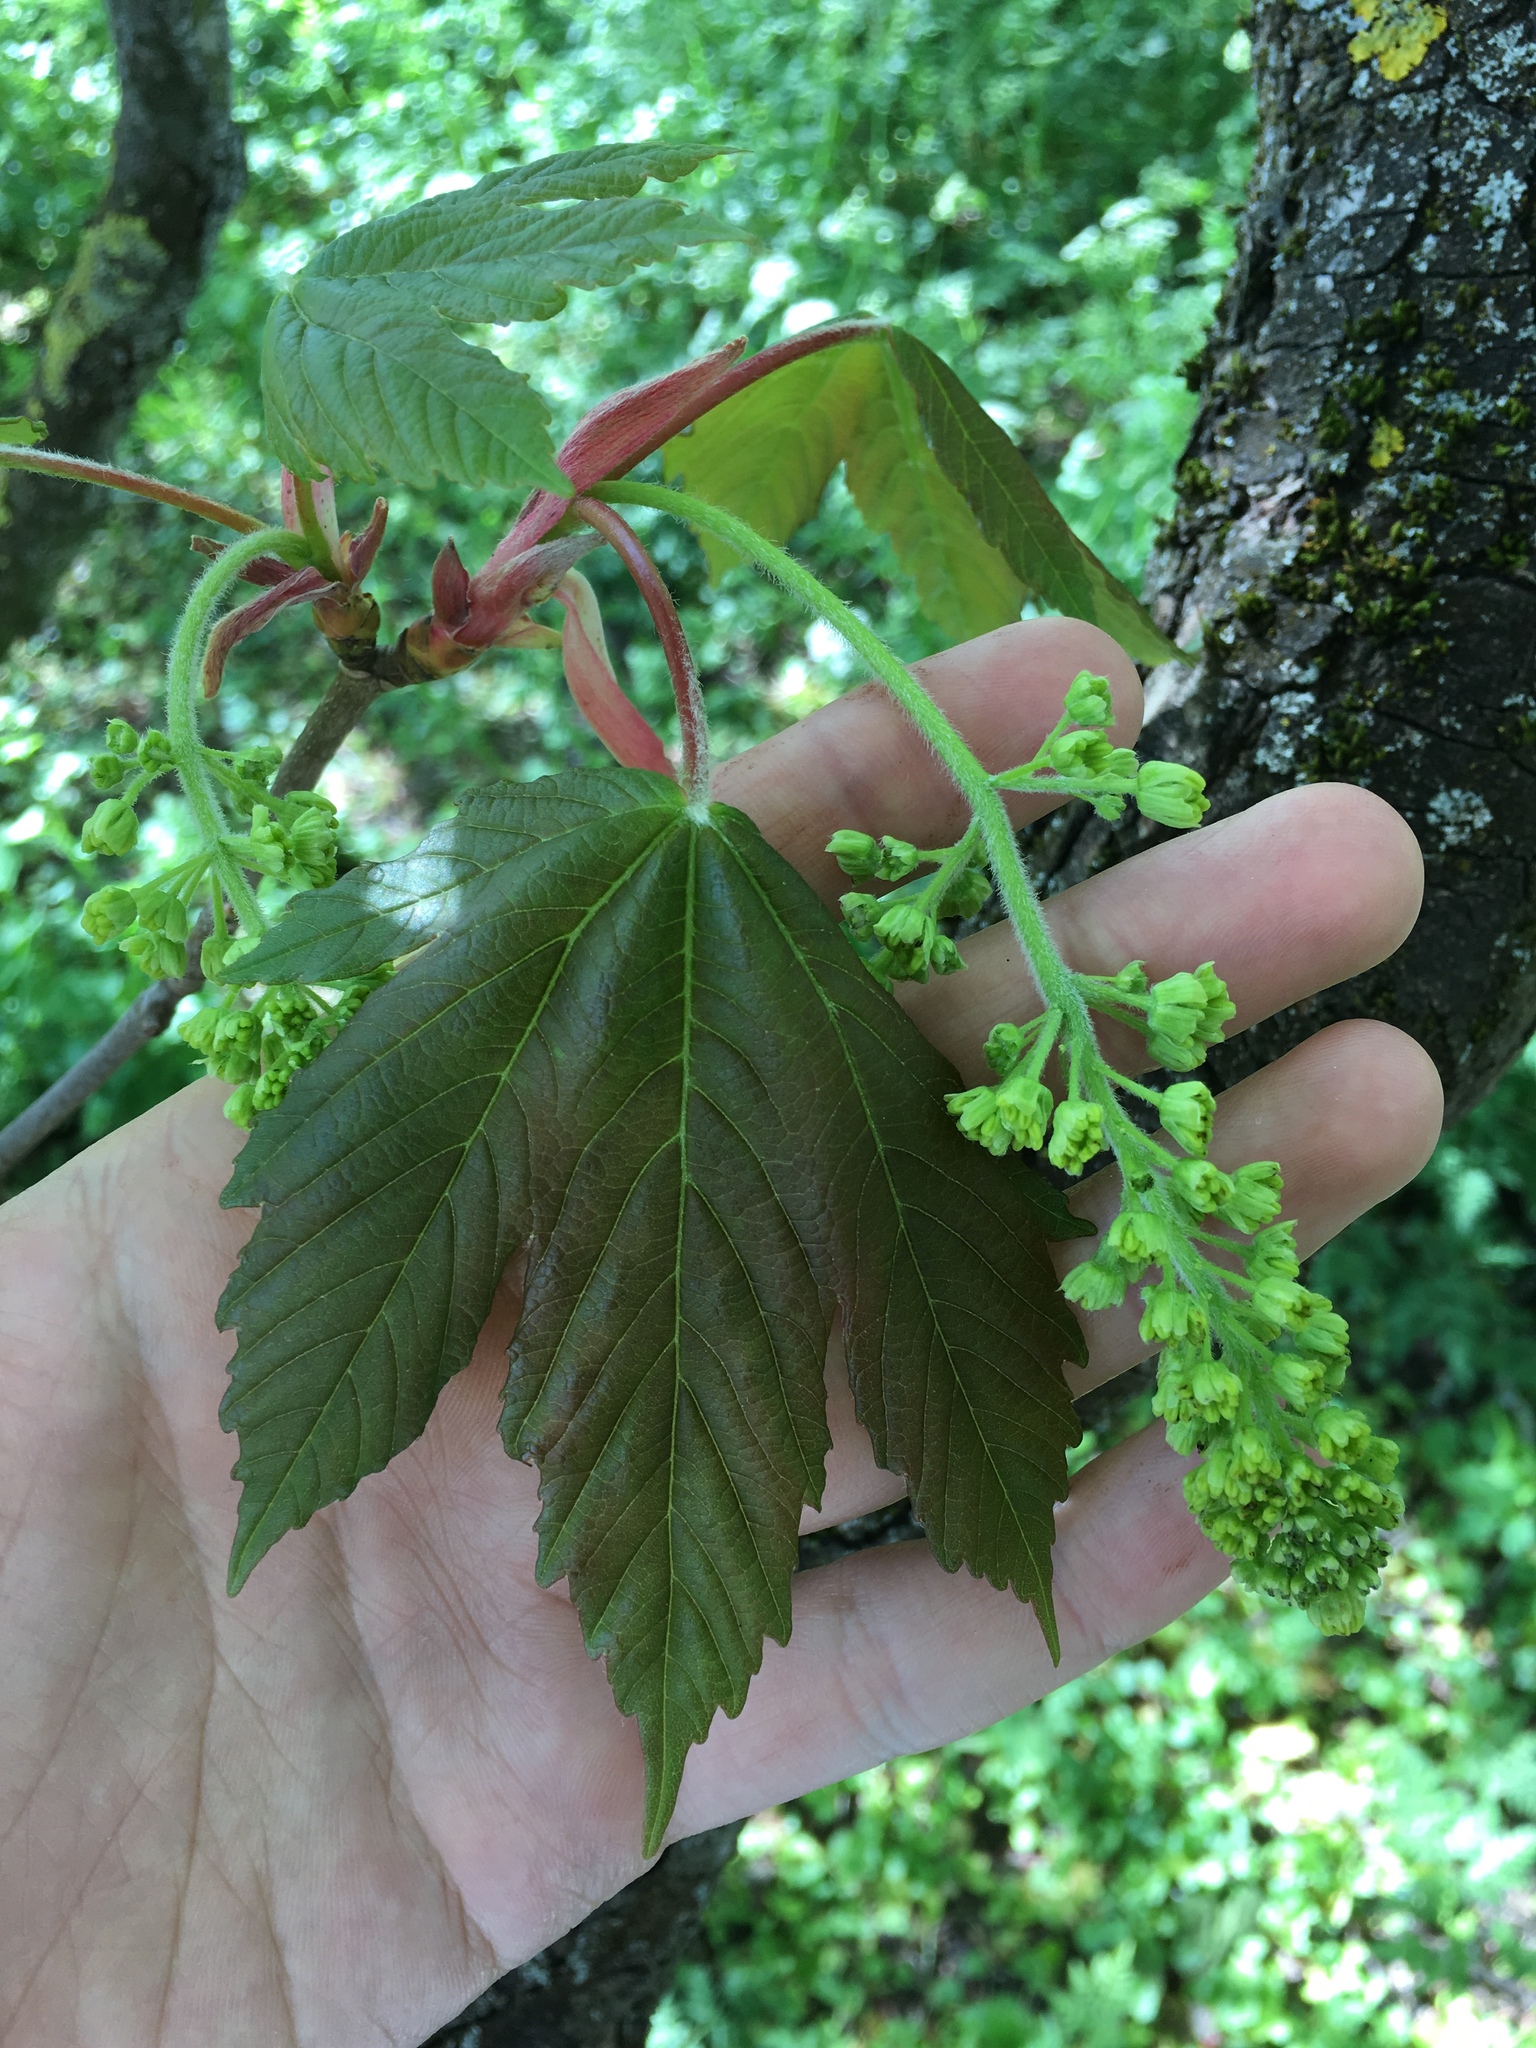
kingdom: Plantae
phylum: Tracheophyta
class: Magnoliopsida
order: Sapindales
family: Sapindaceae
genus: Acer
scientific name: Acer pseudoplatanus
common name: Sycamore
